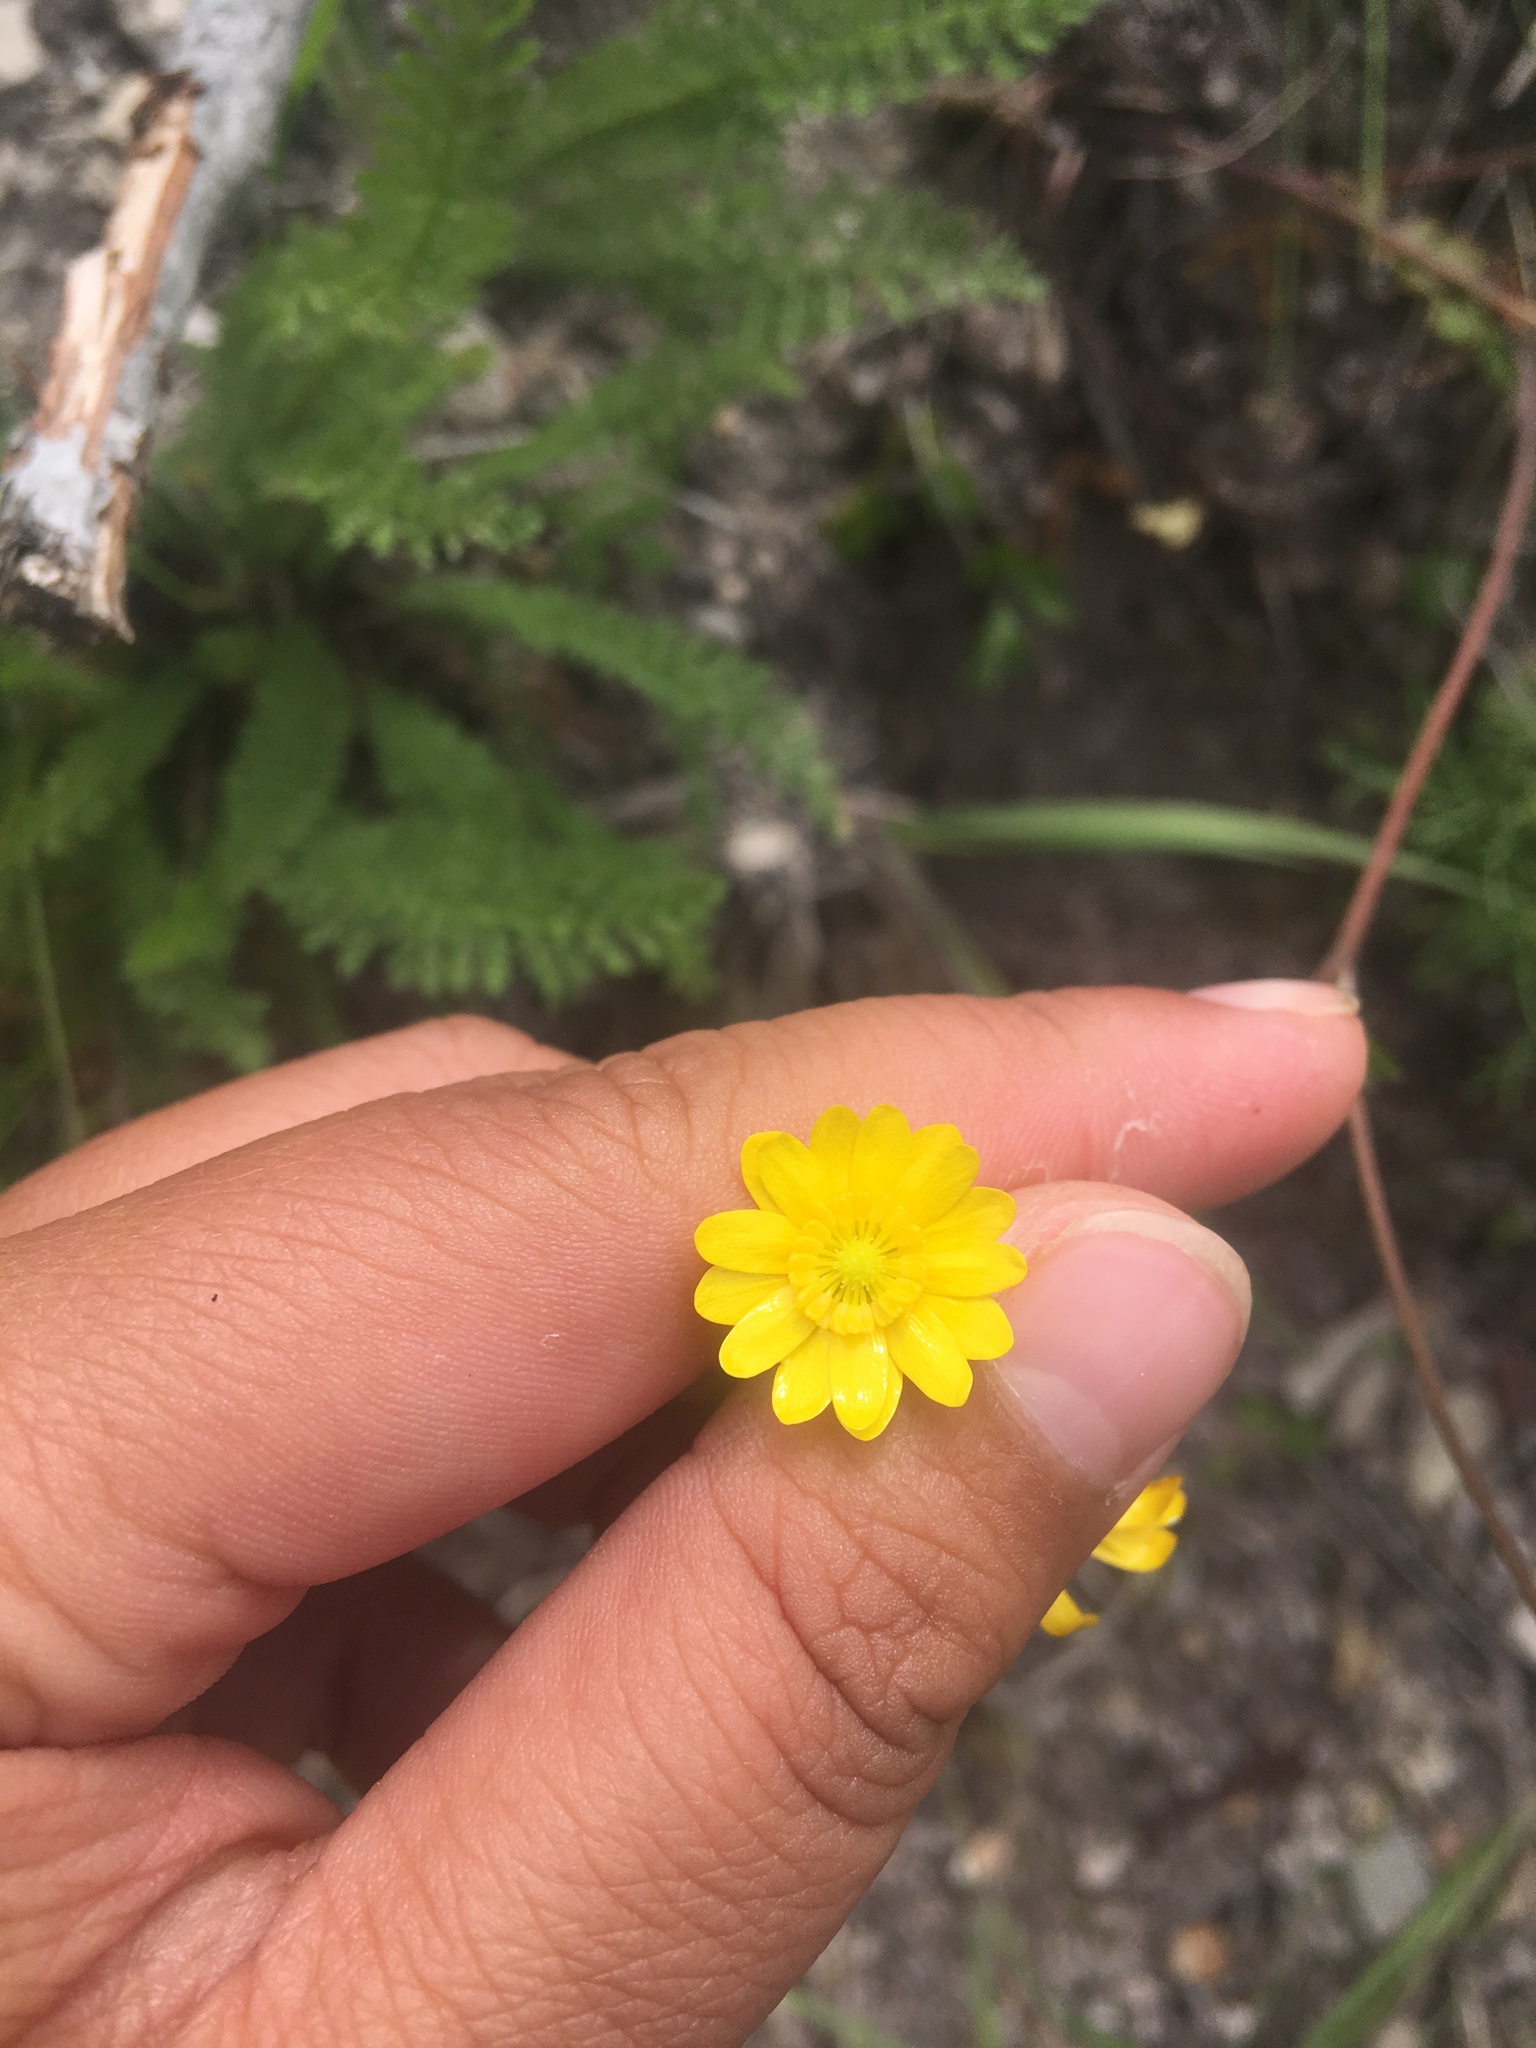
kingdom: Plantae
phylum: Tracheophyta
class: Magnoliopsida
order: Ranunculales
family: Ranunculaceae
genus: Ranunculus
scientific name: Ranunculus californicus
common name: California buttercup
